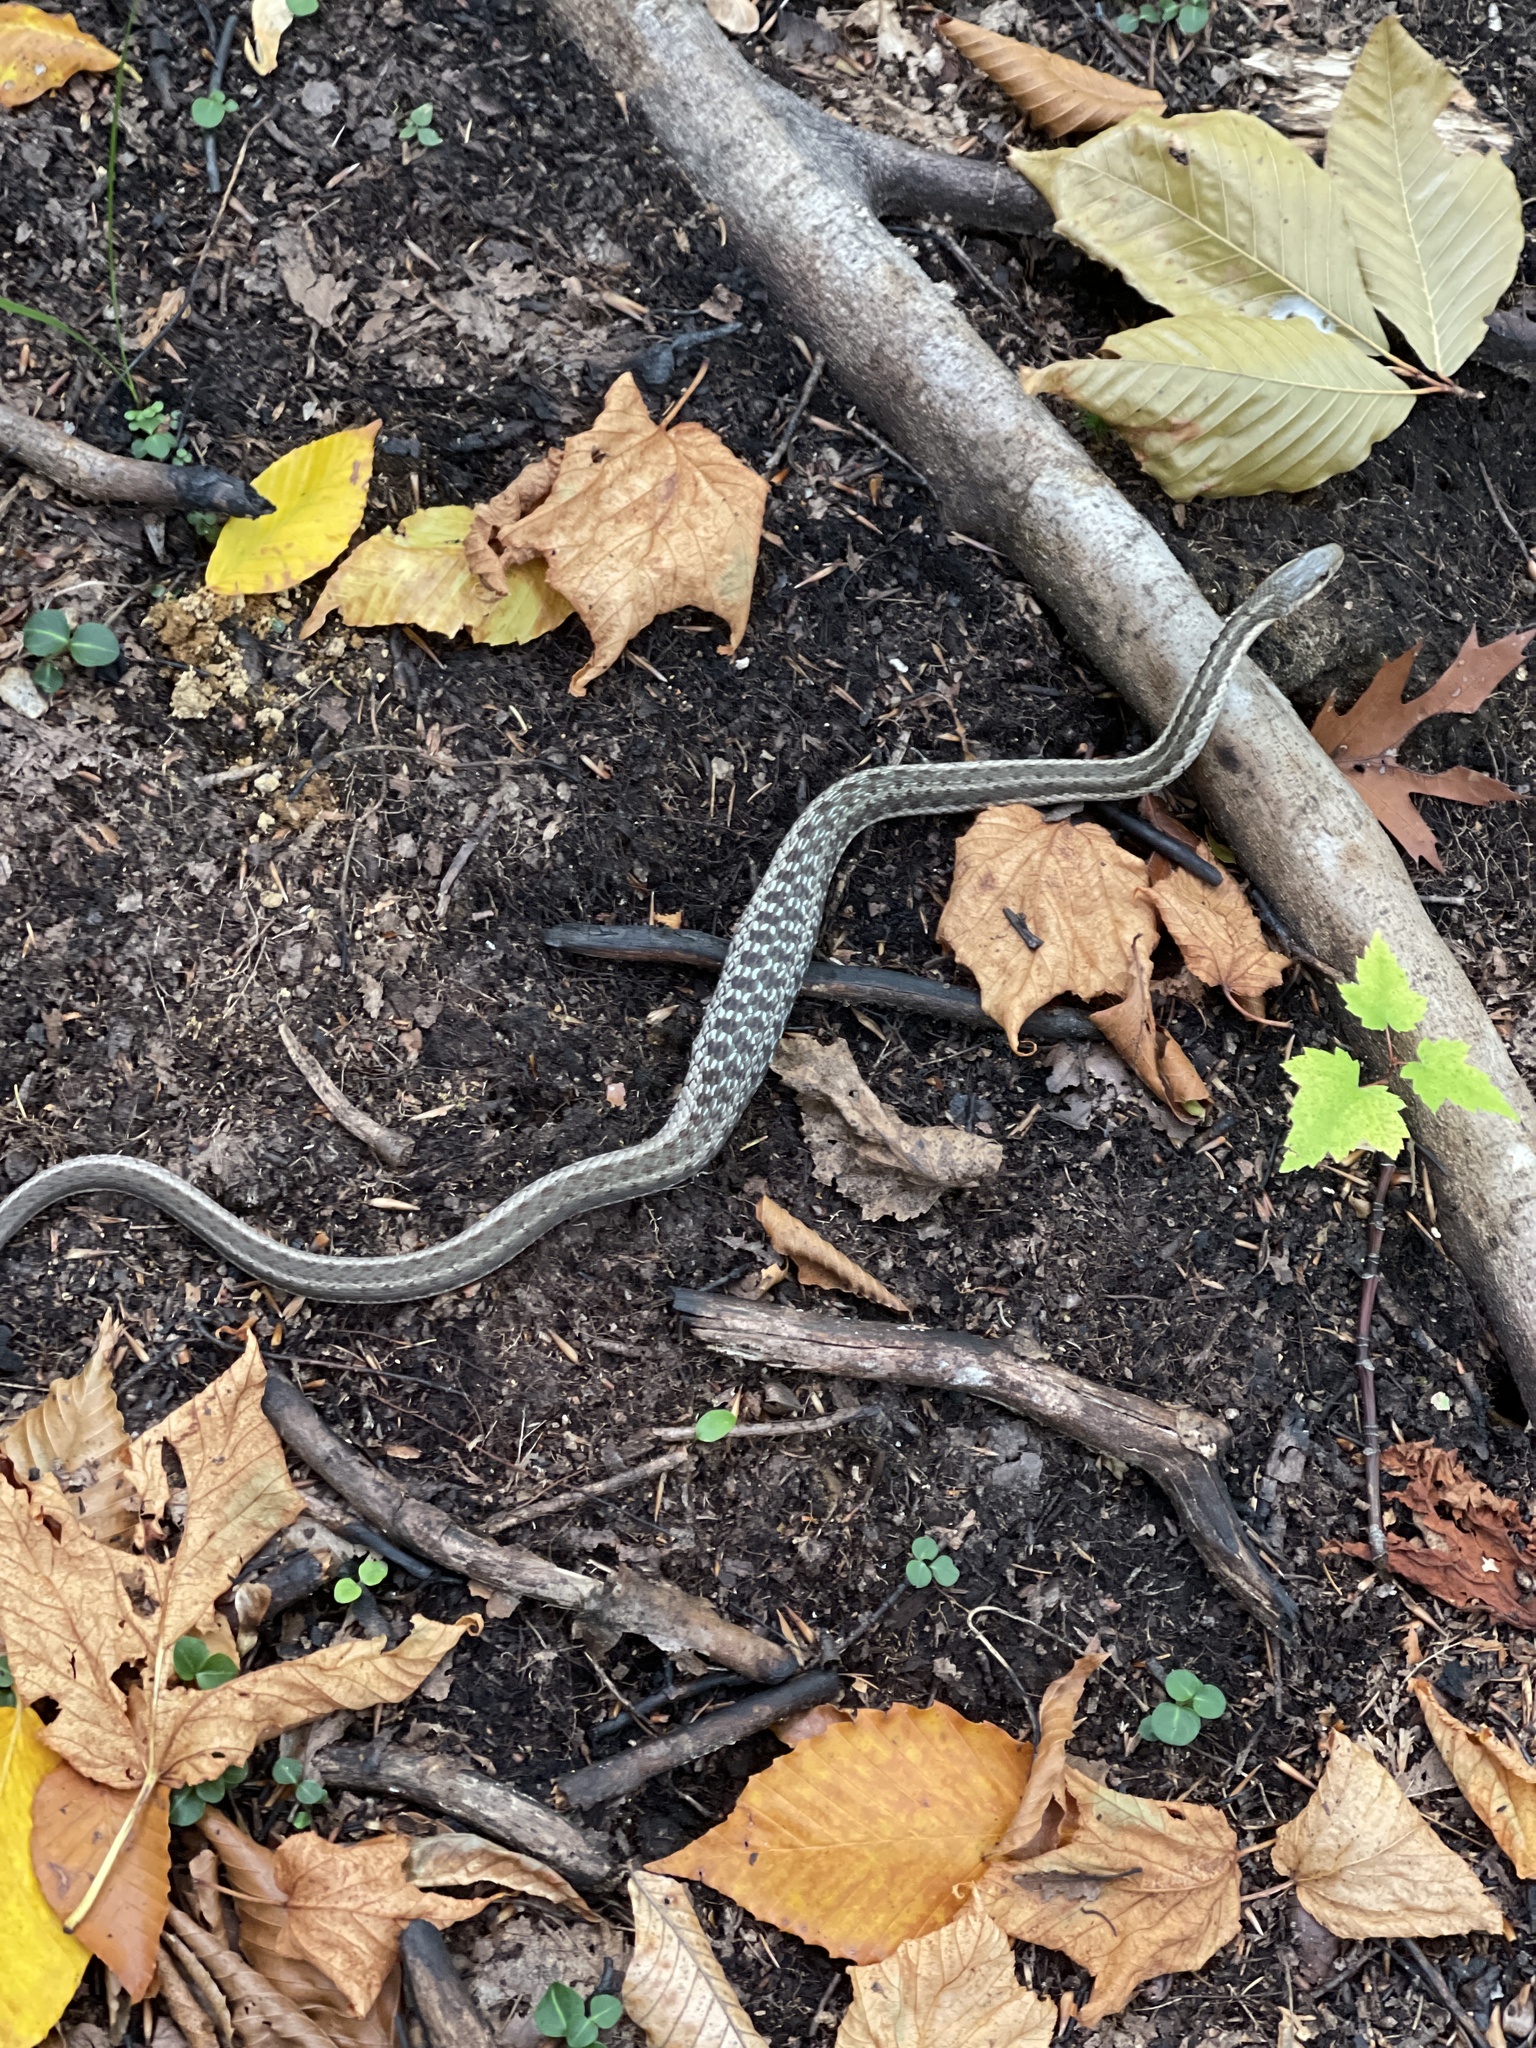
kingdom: Animalia
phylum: Chordata
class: Squamata
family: Colubridae
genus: Thamnophis
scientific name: Thamnophis sirtalis
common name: Common garter snake
